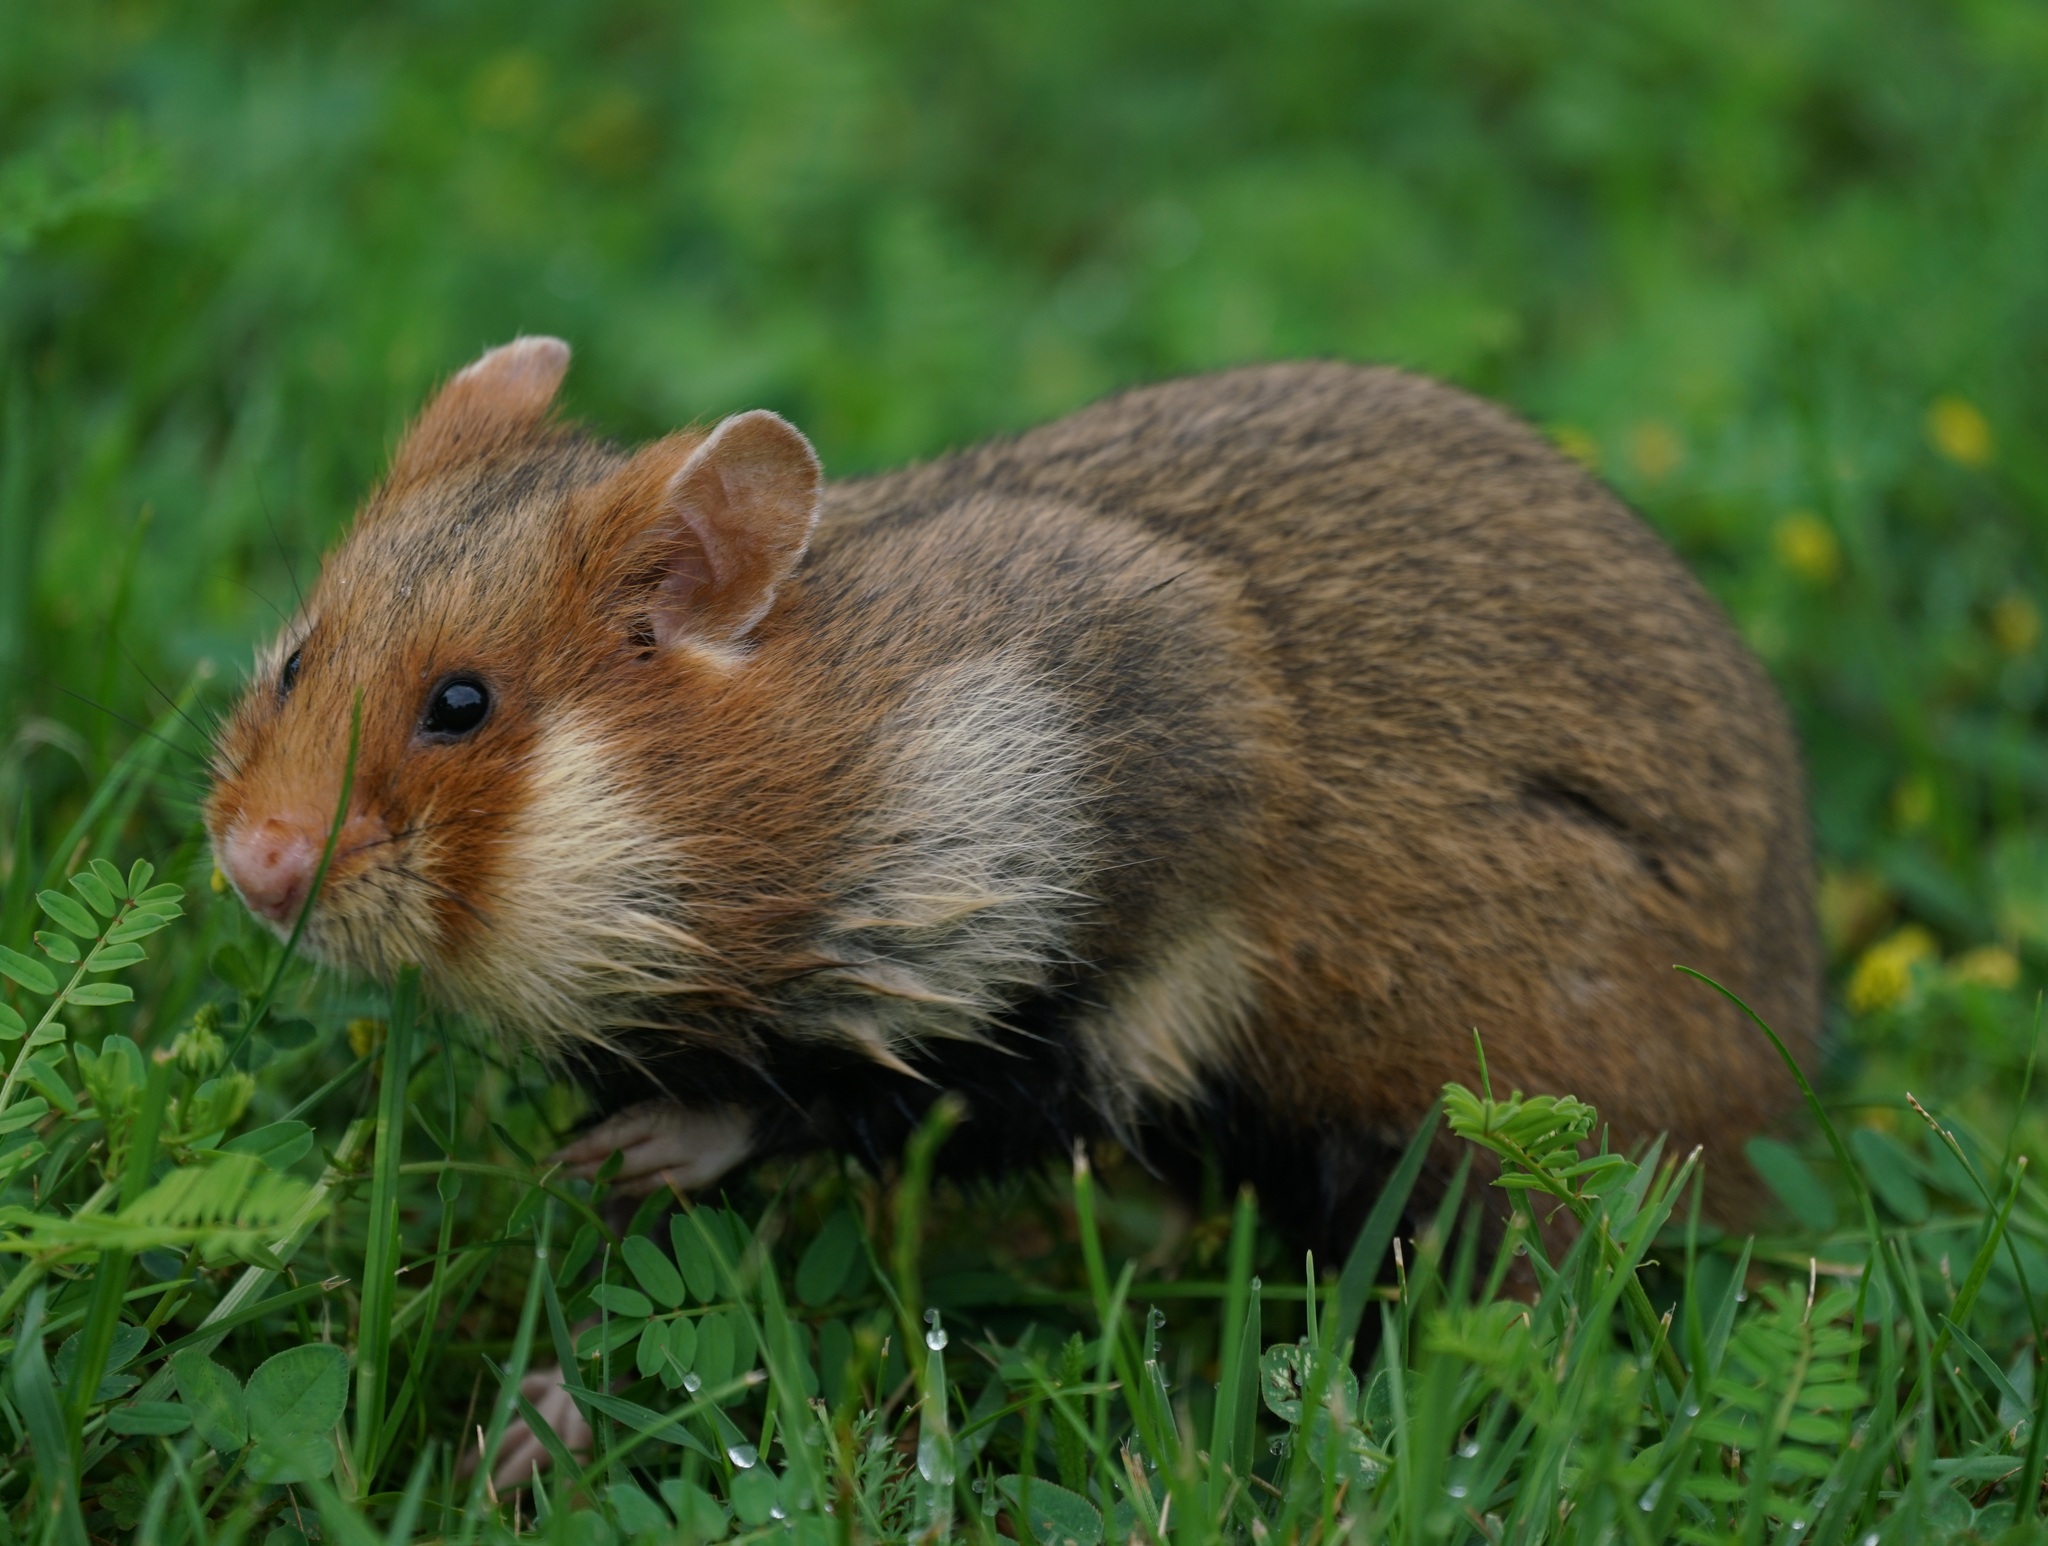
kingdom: Animalia
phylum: Chordata
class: Mammalia
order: Rodentia
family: Cricetidae
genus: Cricetus
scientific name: Cricetus cricetus
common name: Common hamster
